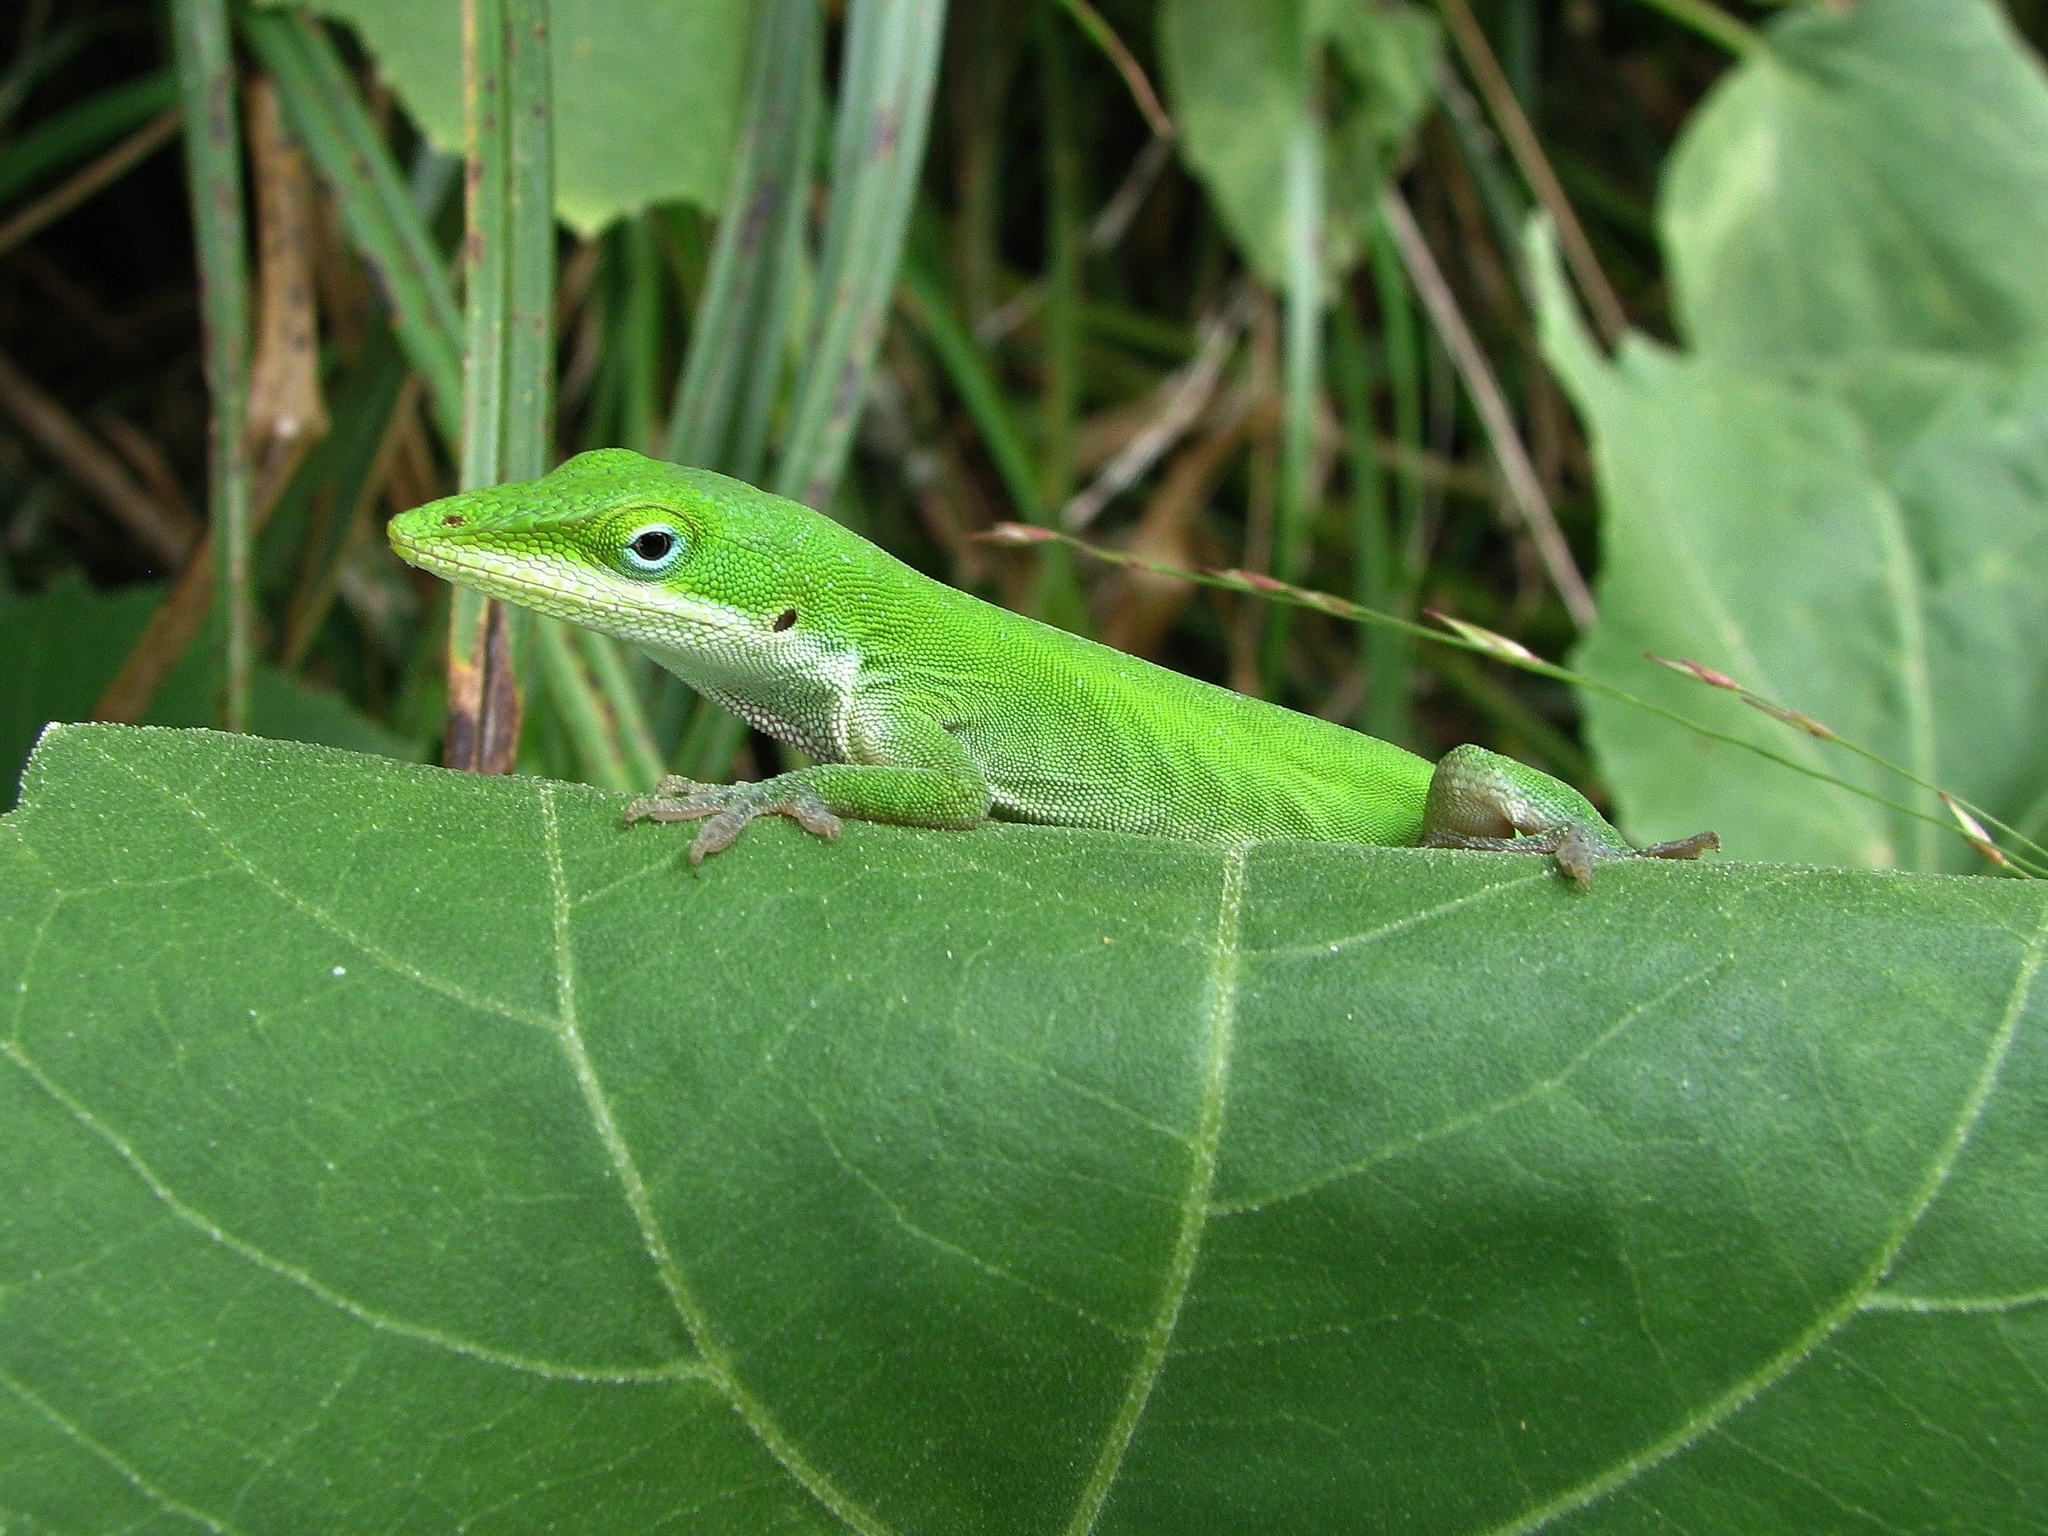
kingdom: Animalia
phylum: Chordata
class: Squamata
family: Dactyloidae
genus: Anolis
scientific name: Anolis carolinensis
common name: Green anole
